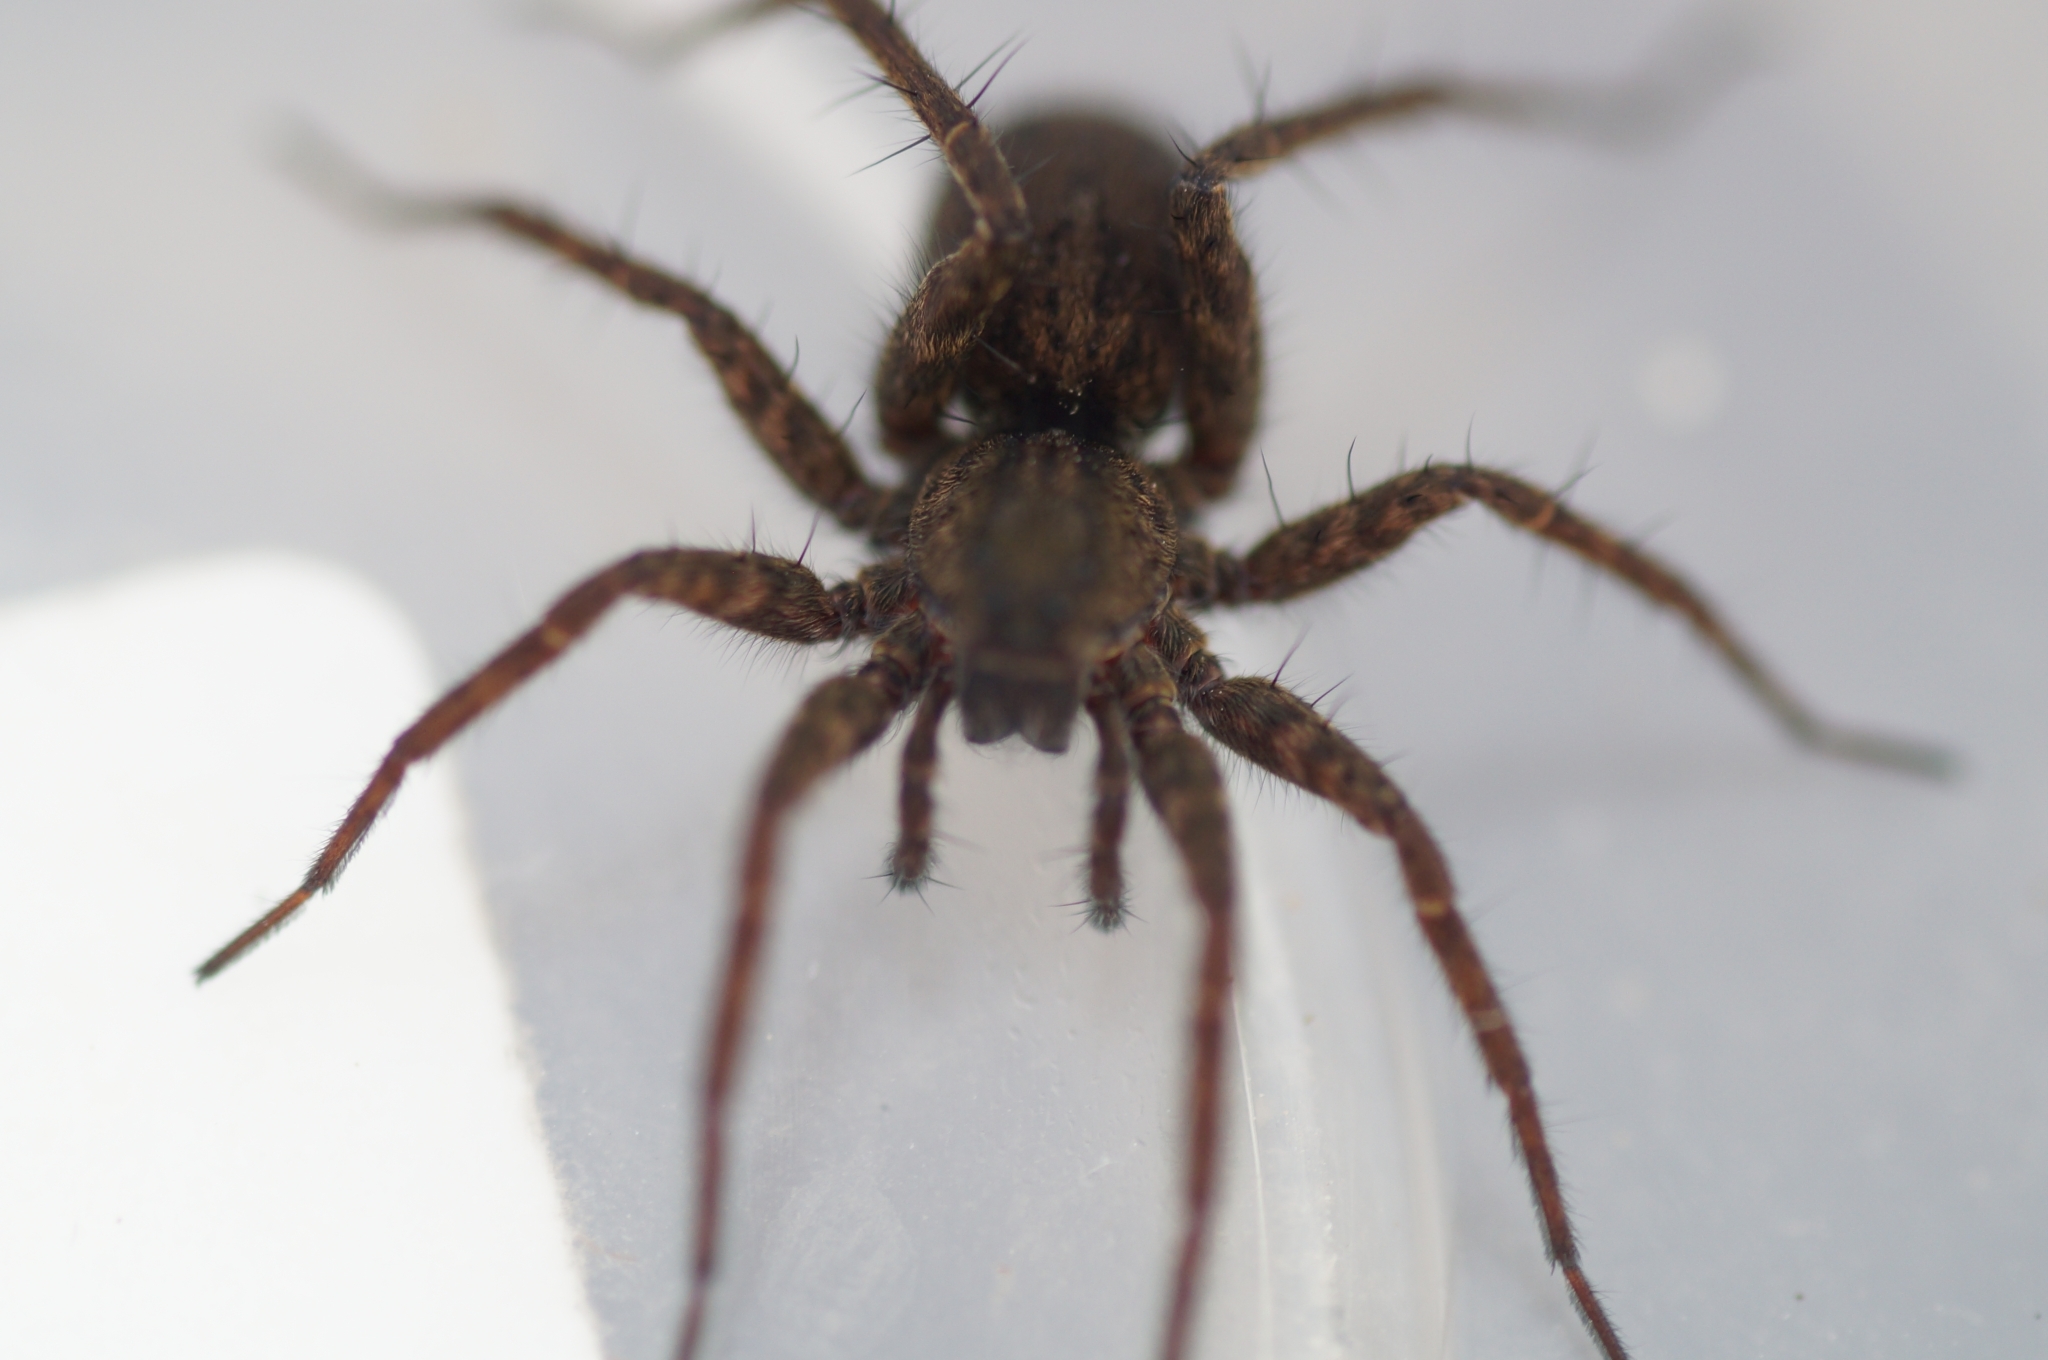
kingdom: Animalia
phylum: Arthropoda
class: Arachnida
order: Araneae
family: Lycosidae
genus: Pardosa
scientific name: Pardosa paludicola
